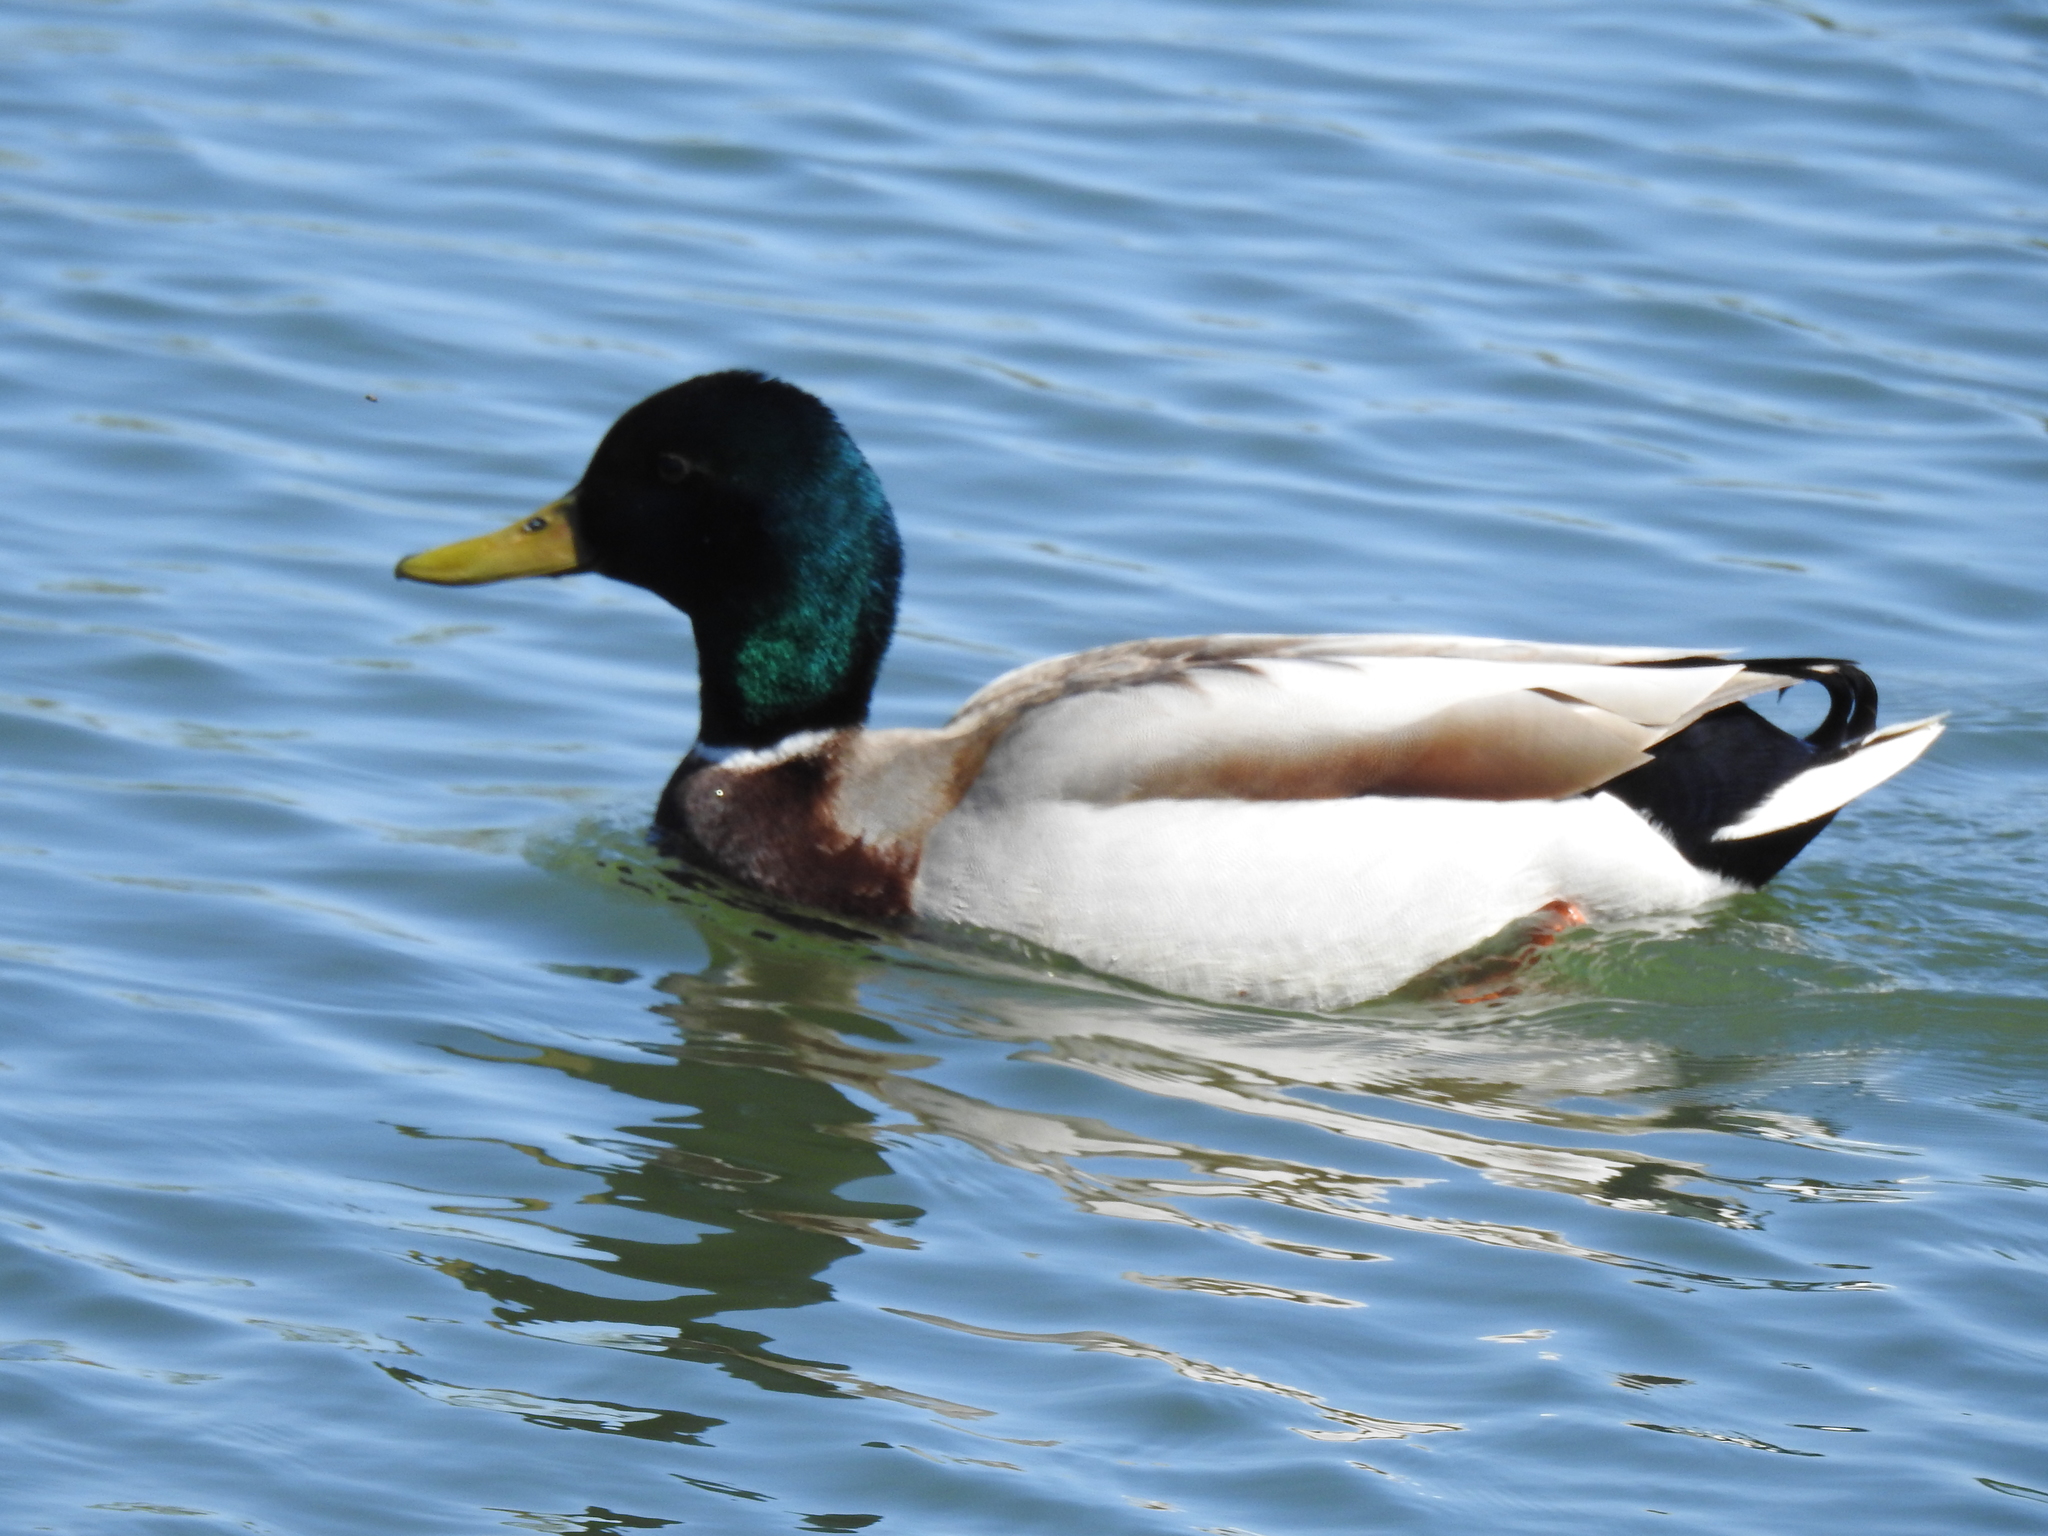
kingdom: Animalia
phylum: Chordata
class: Aves
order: Anseriformes
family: Anatidae
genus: Anas
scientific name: Anas platyrhynchos
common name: Mallard
